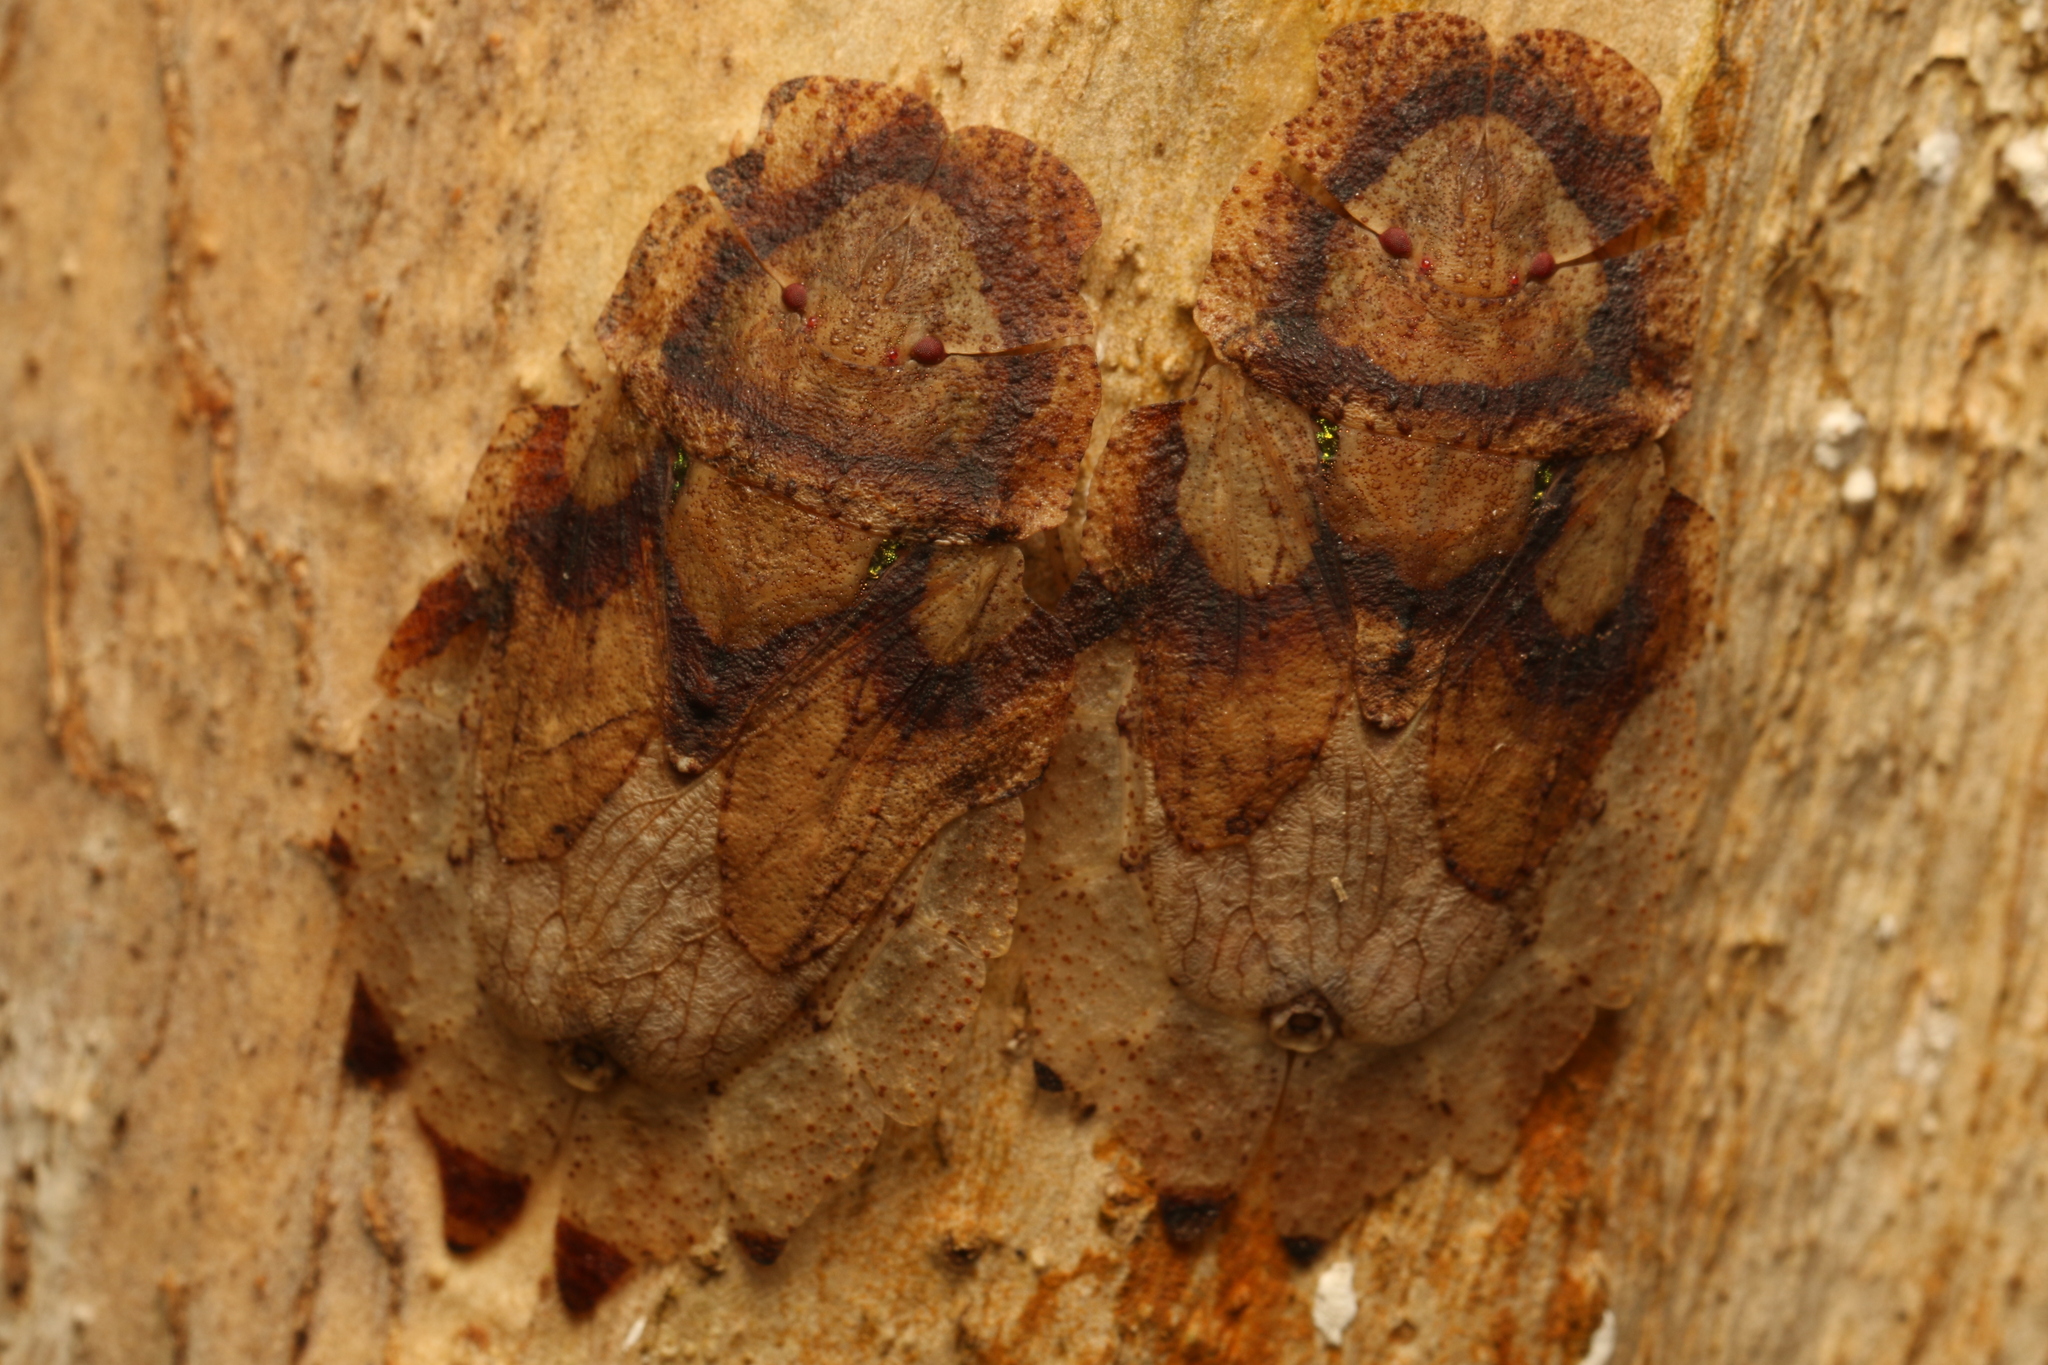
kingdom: Animalia
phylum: Arthropoda
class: Insecta
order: Hemiptera
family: Phleides
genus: Phloea
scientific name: Phloea
